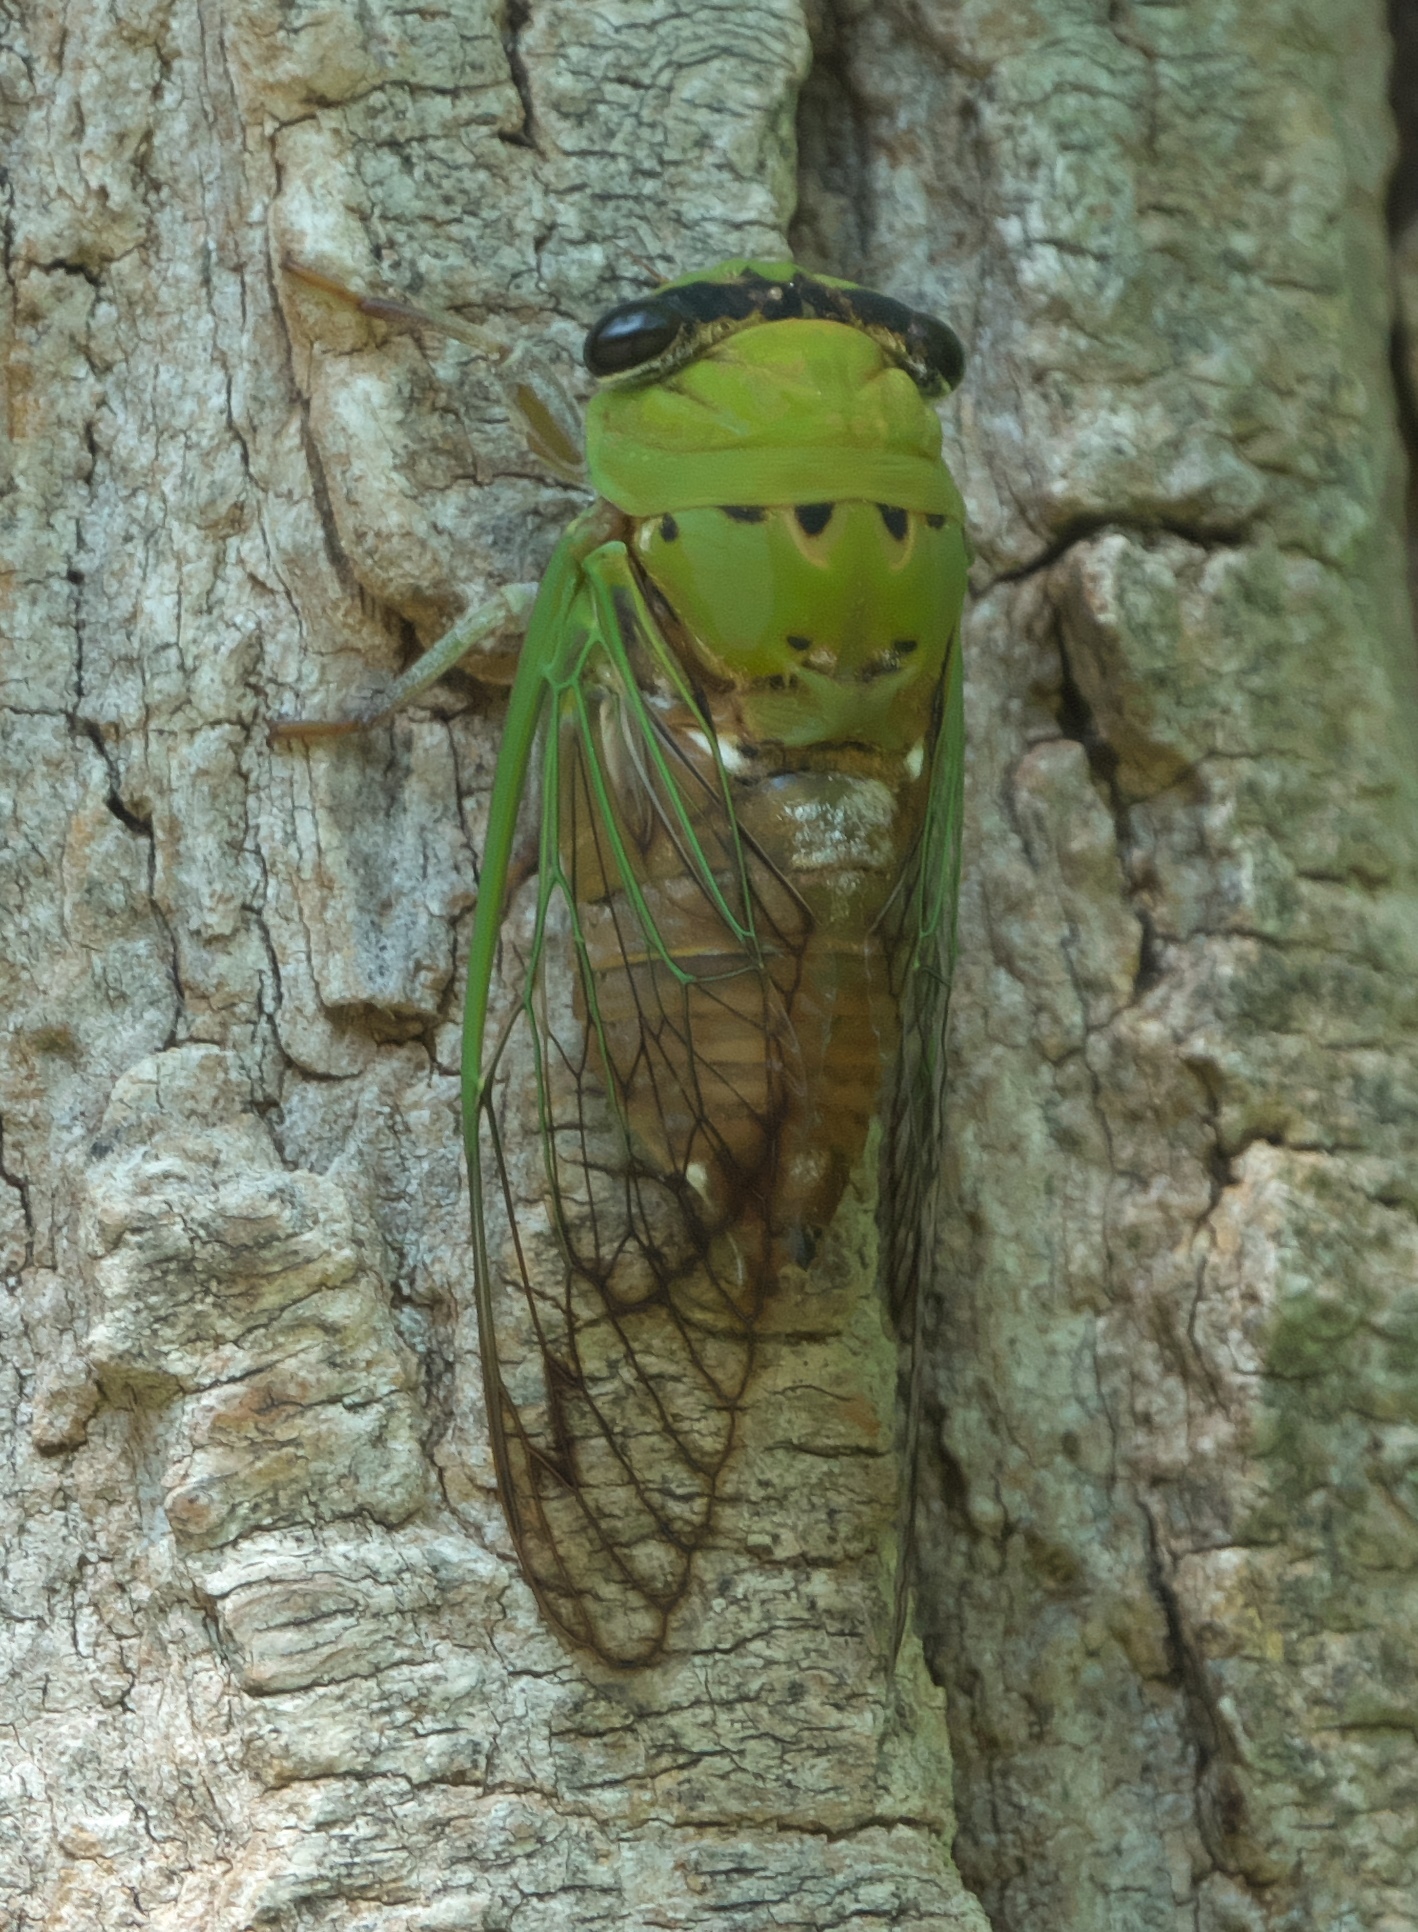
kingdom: Animalia
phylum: Arthropoda
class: Insecta
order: Hemiptera
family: Cicadidae
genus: Neotibicen
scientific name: Neotibicen superbus
